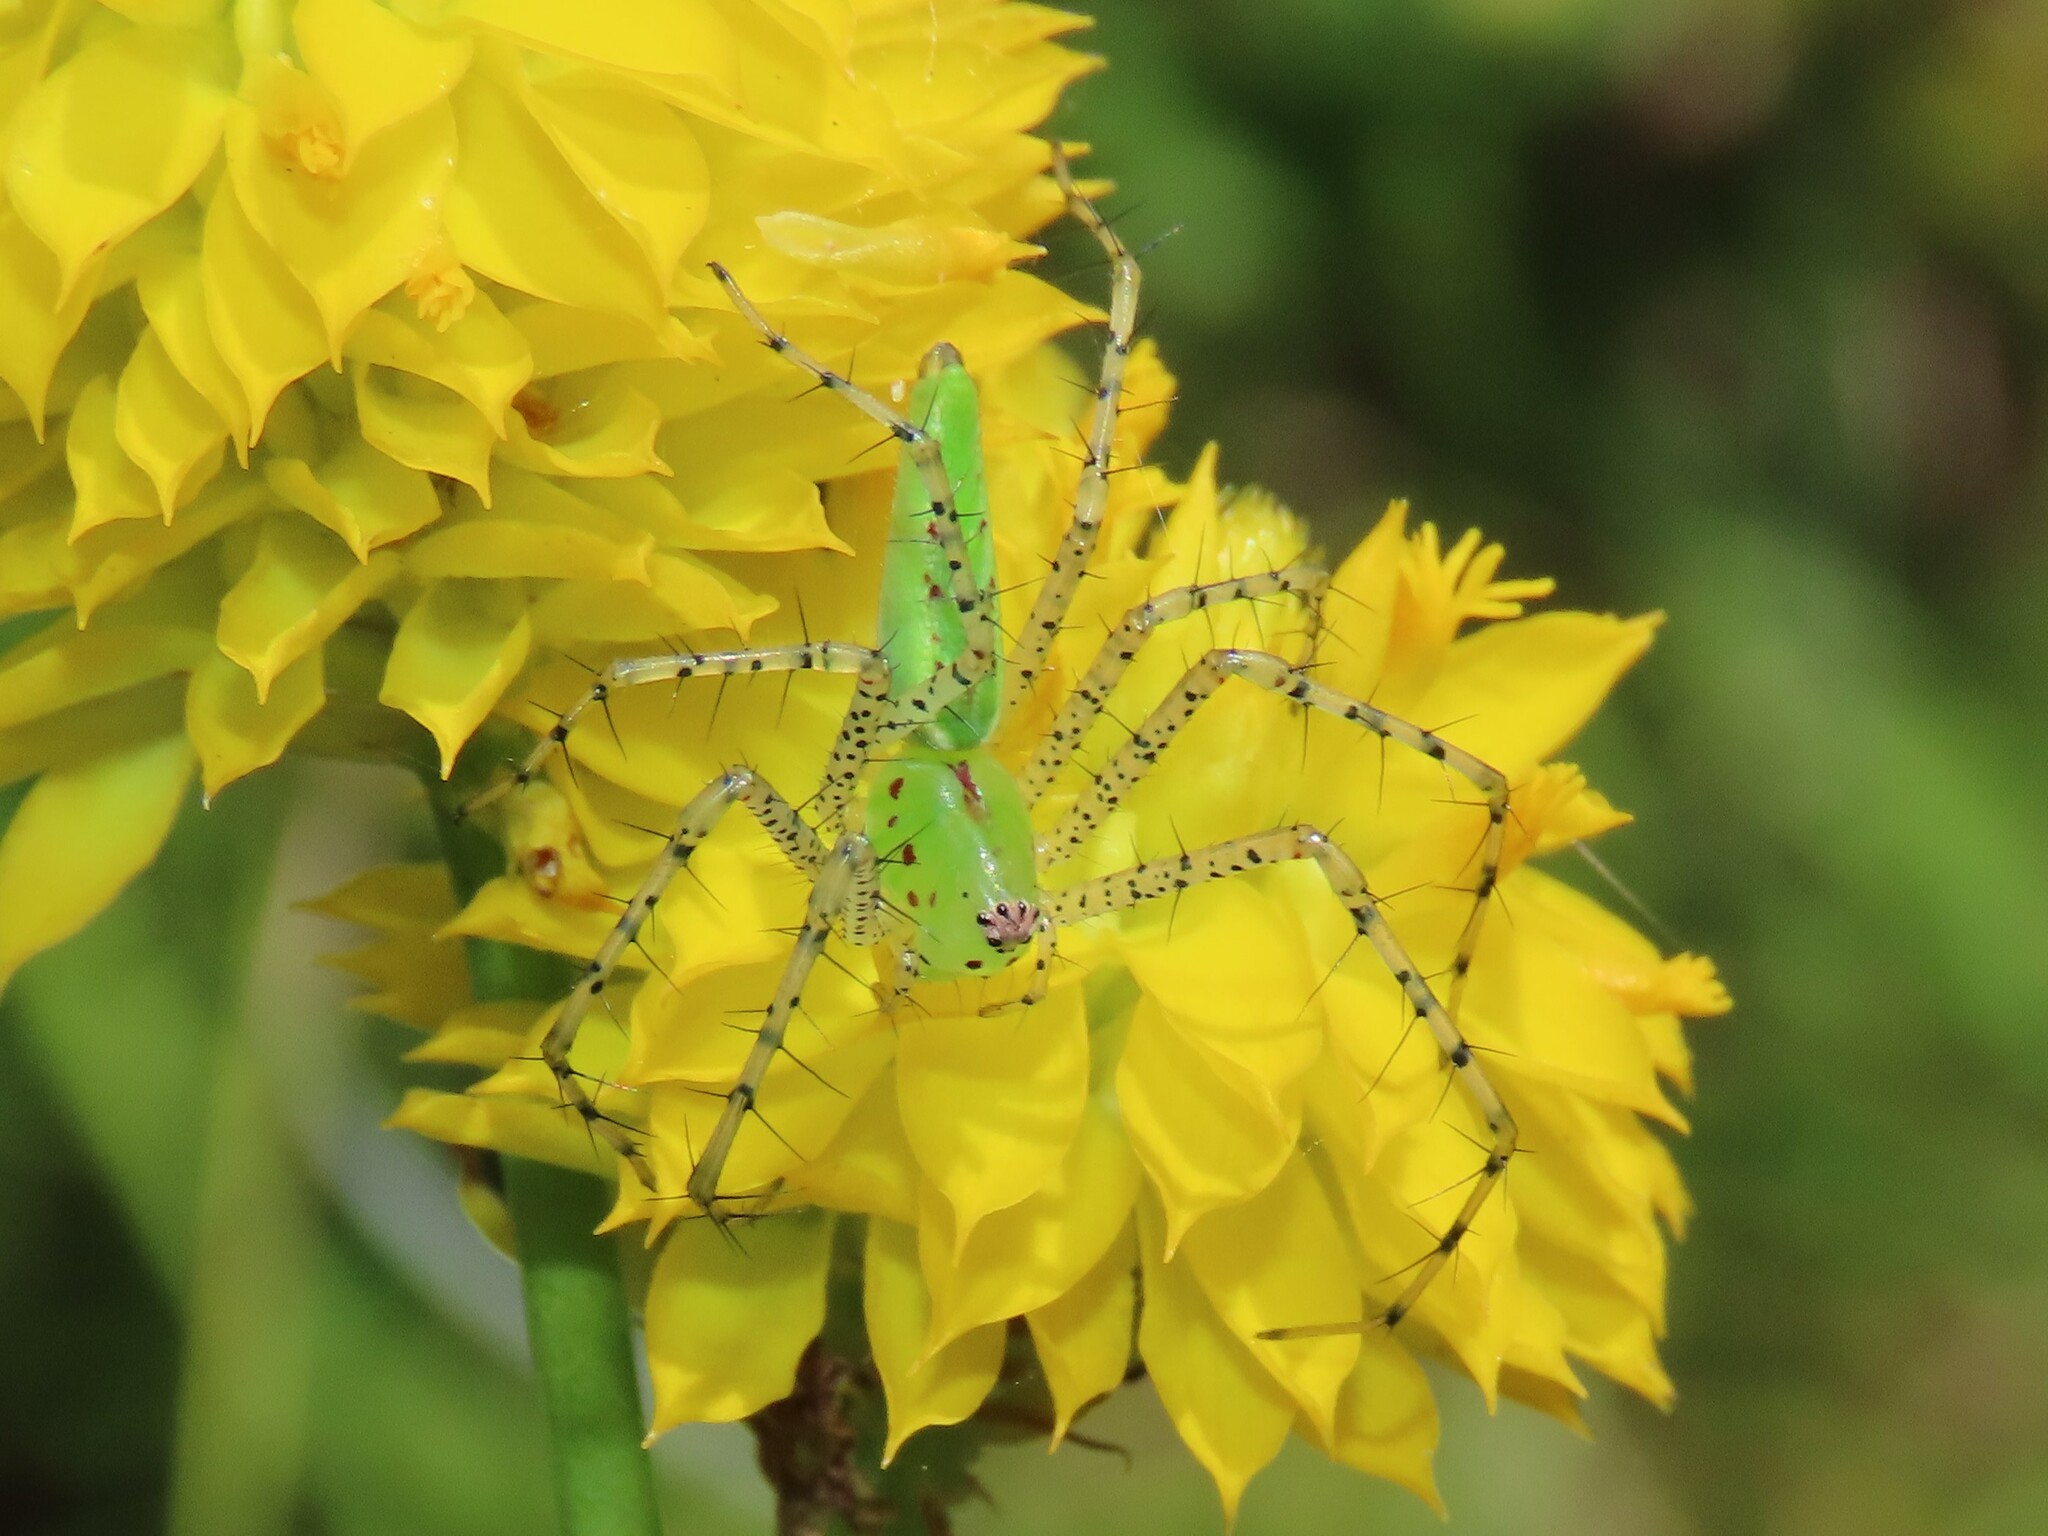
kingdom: Animalia
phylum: Arthropoda
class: Arachnida
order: Araneae
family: Oxyopidae
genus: Peucetia
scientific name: Peucetia viridans
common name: Lynx spiders
